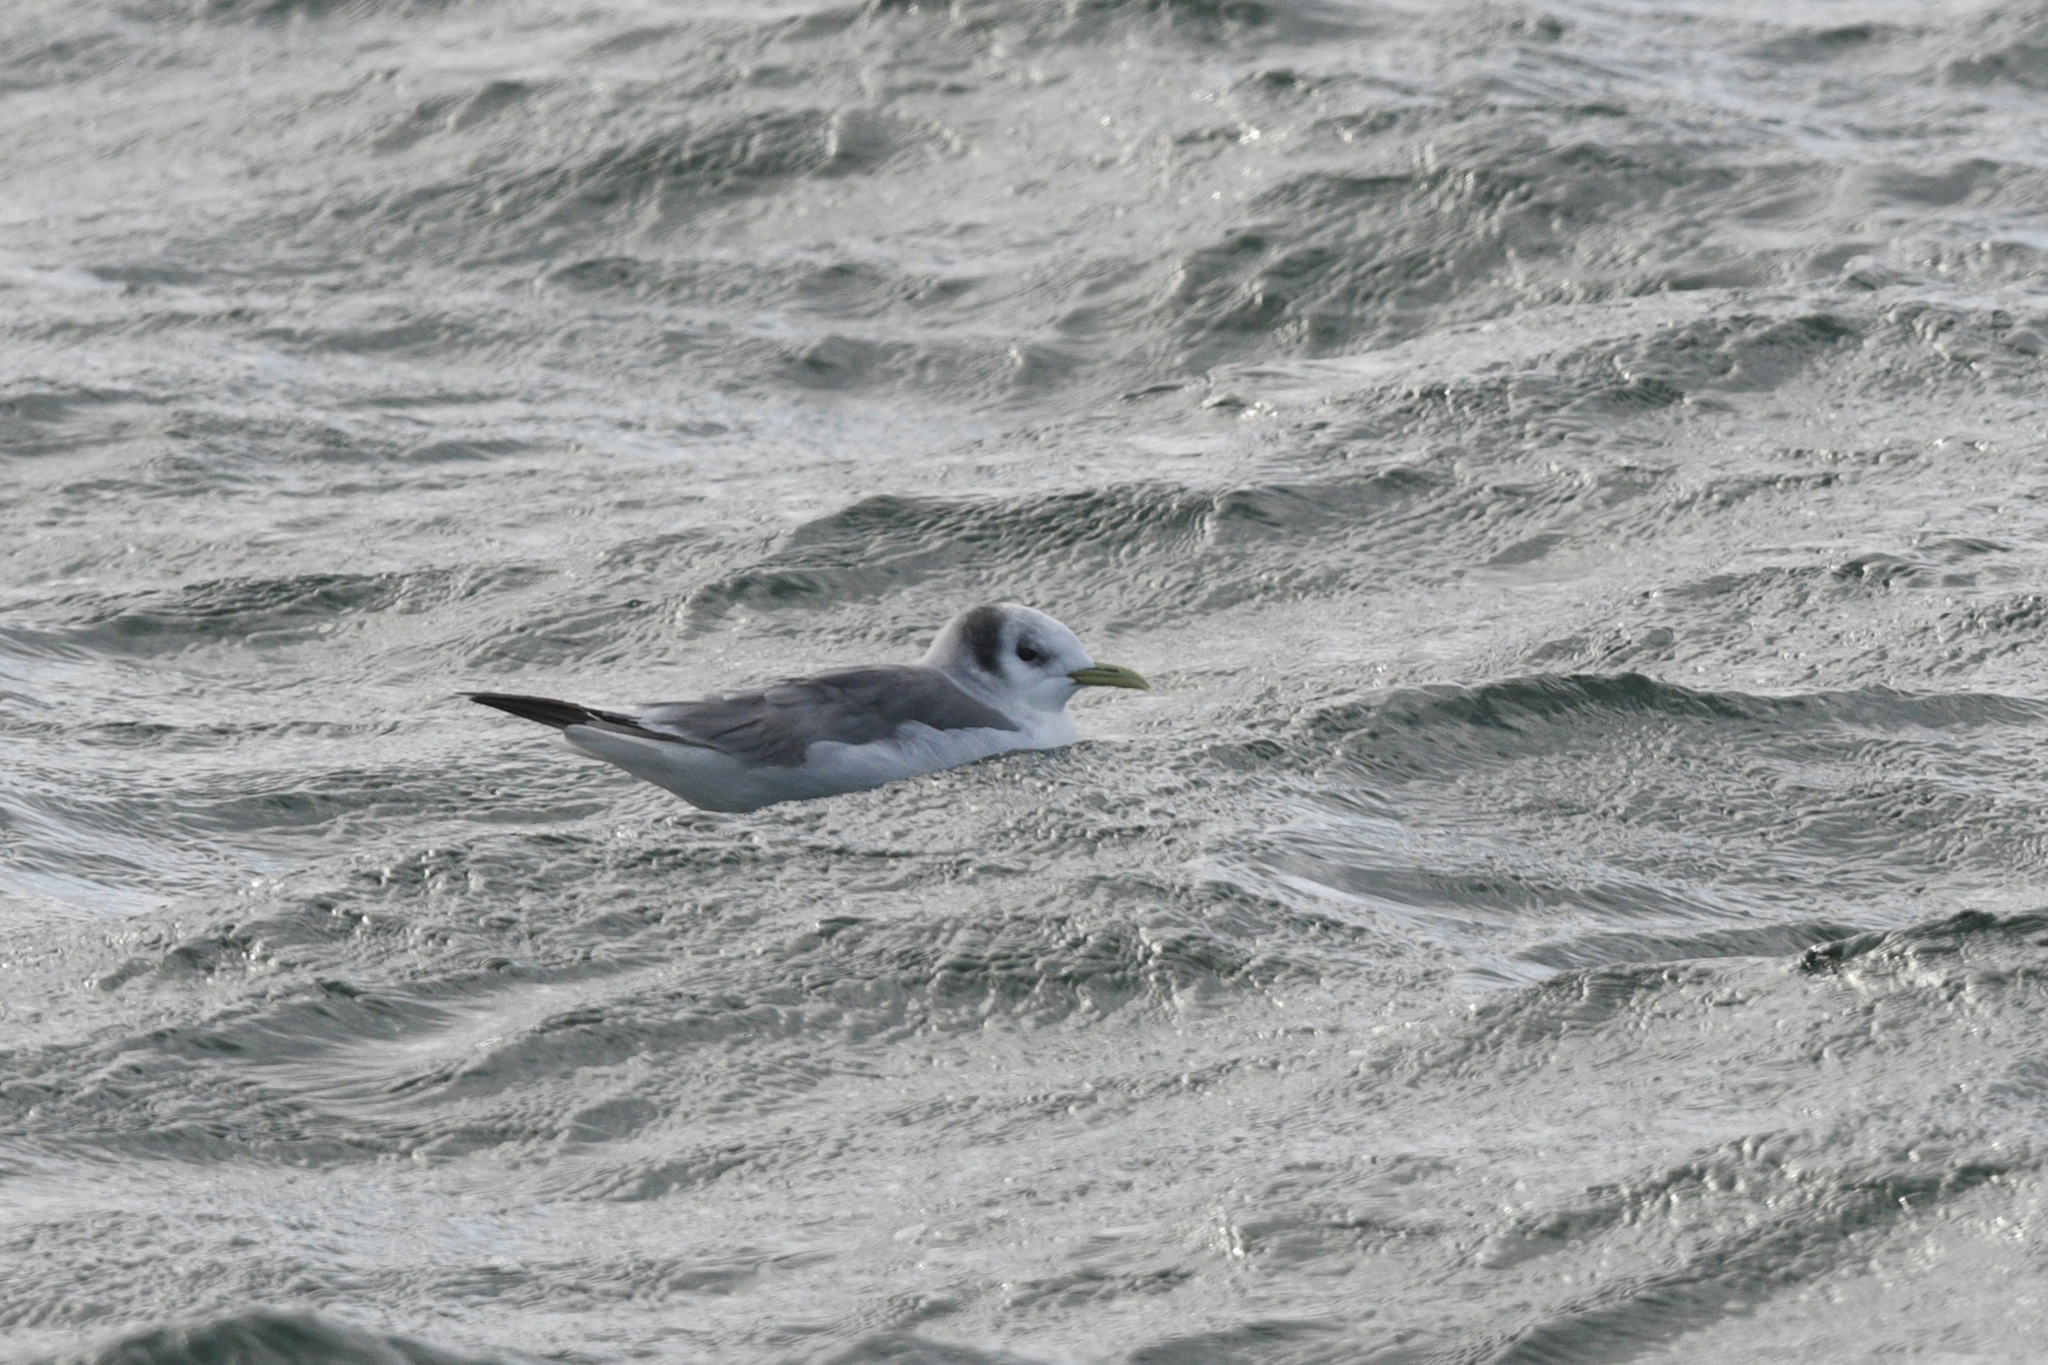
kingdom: Animalia
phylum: Chordata
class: Aves
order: Charadriiformes
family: Laridae
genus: Rissa
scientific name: Rissa tridactyla
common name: Black-legged kittiwake
